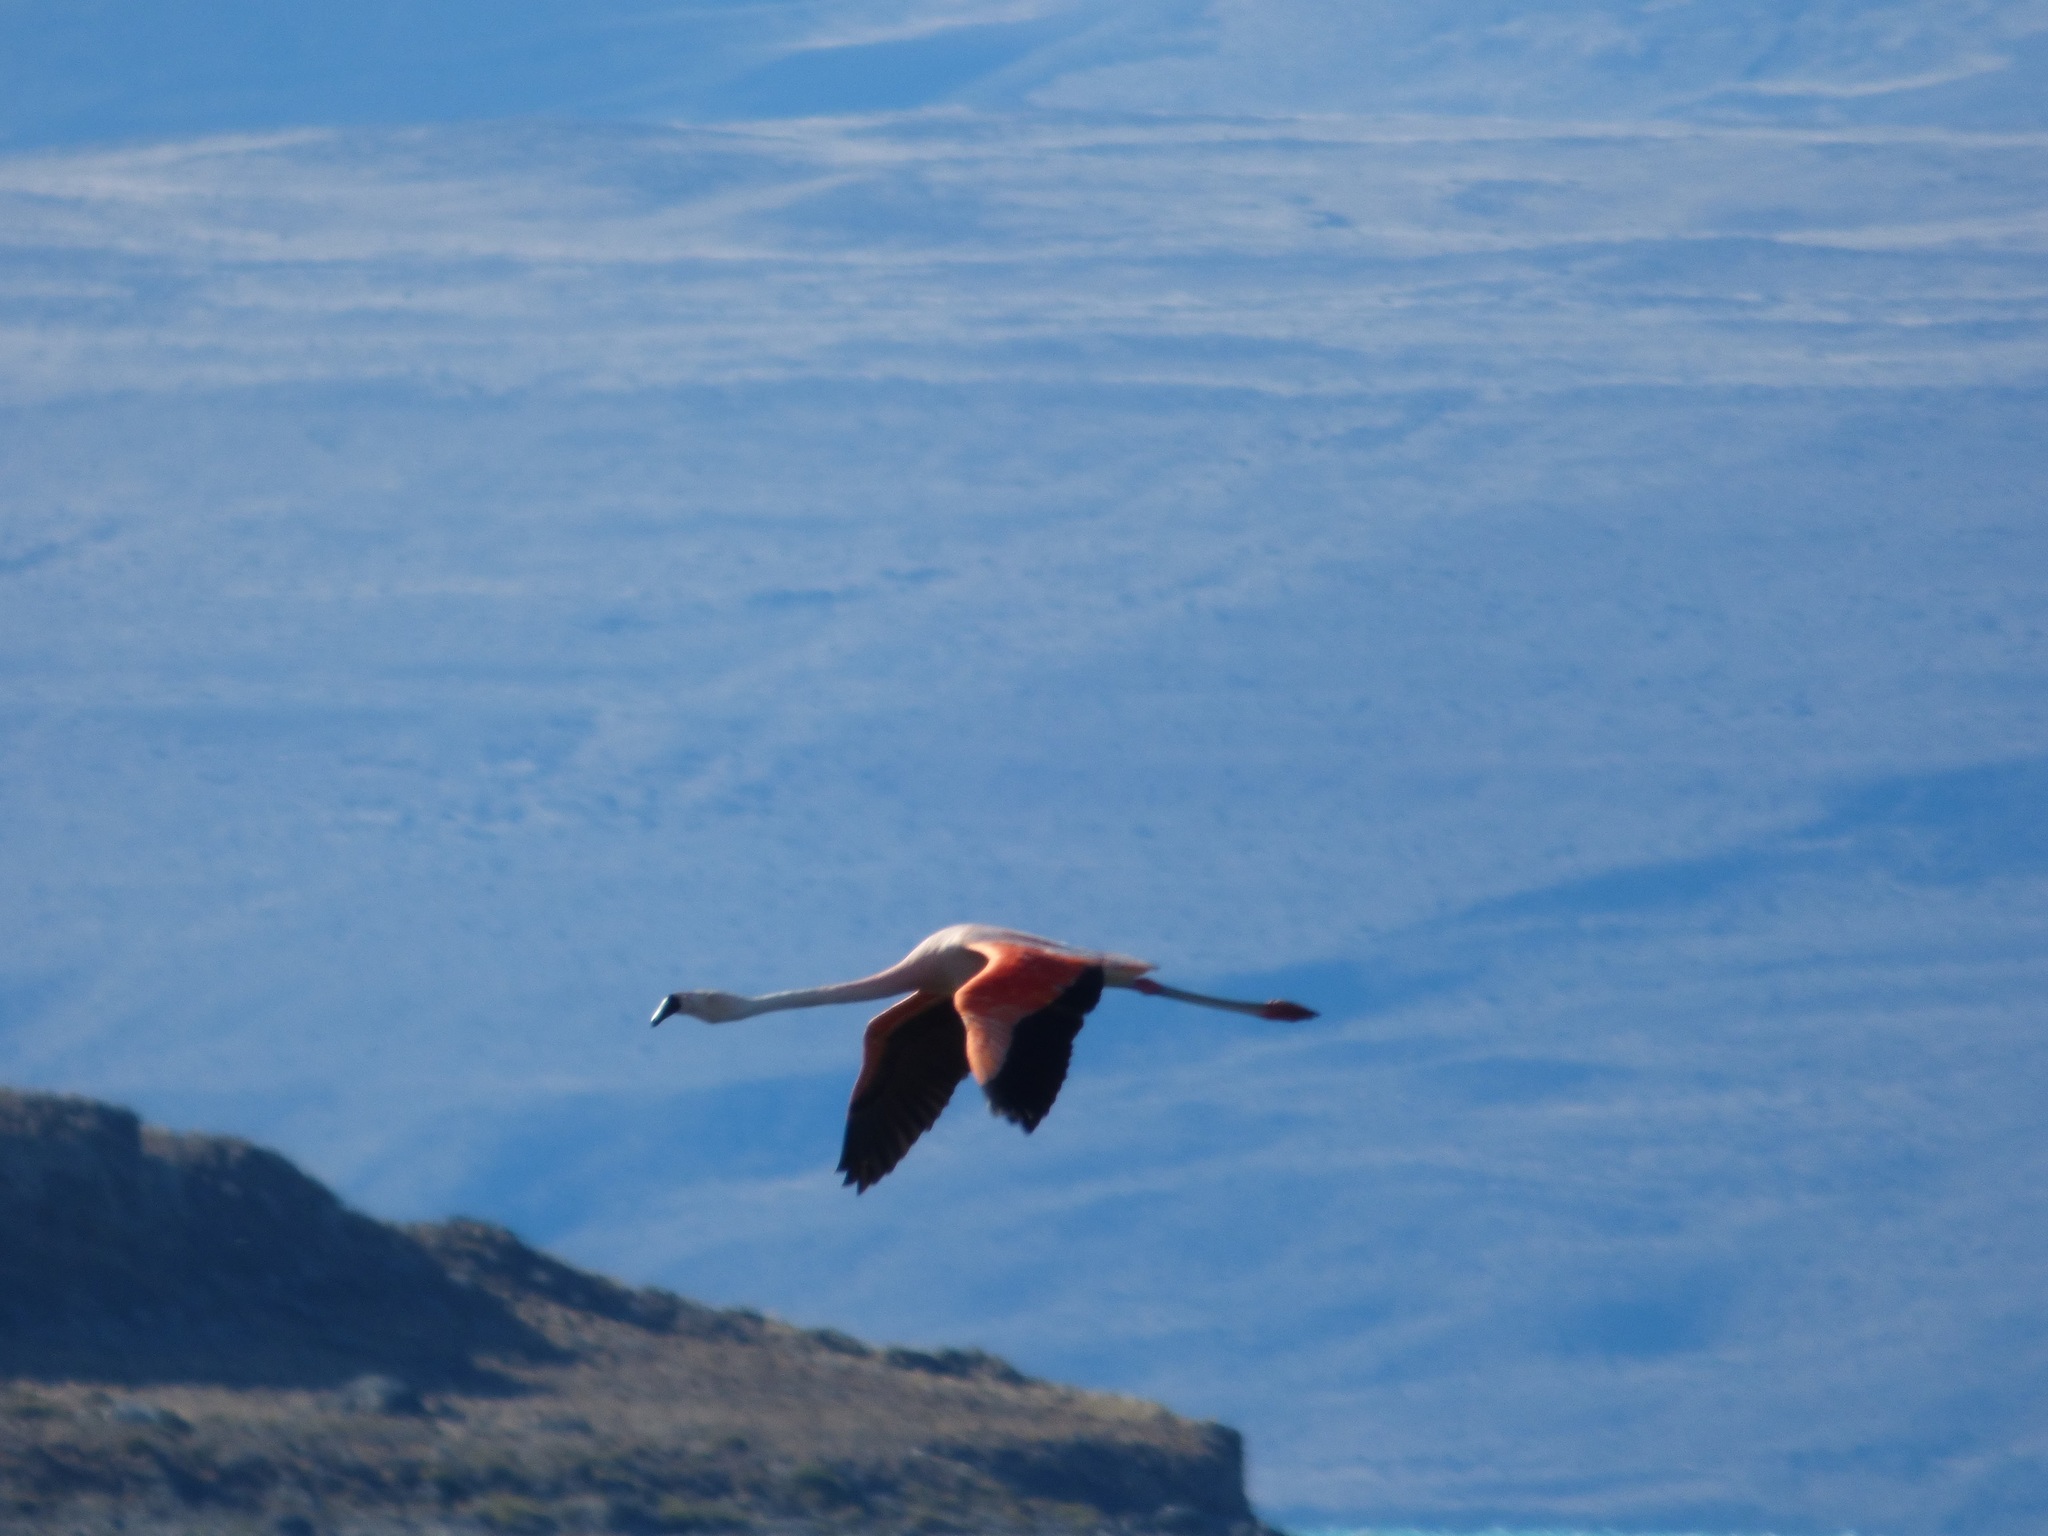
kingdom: Animalia
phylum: Chordata
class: Aves
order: Phoenicopteriformes
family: Phoenicopteridae
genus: Phoenicopterus
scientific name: Phoenicopterus chilensis
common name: Chilean flamingo
